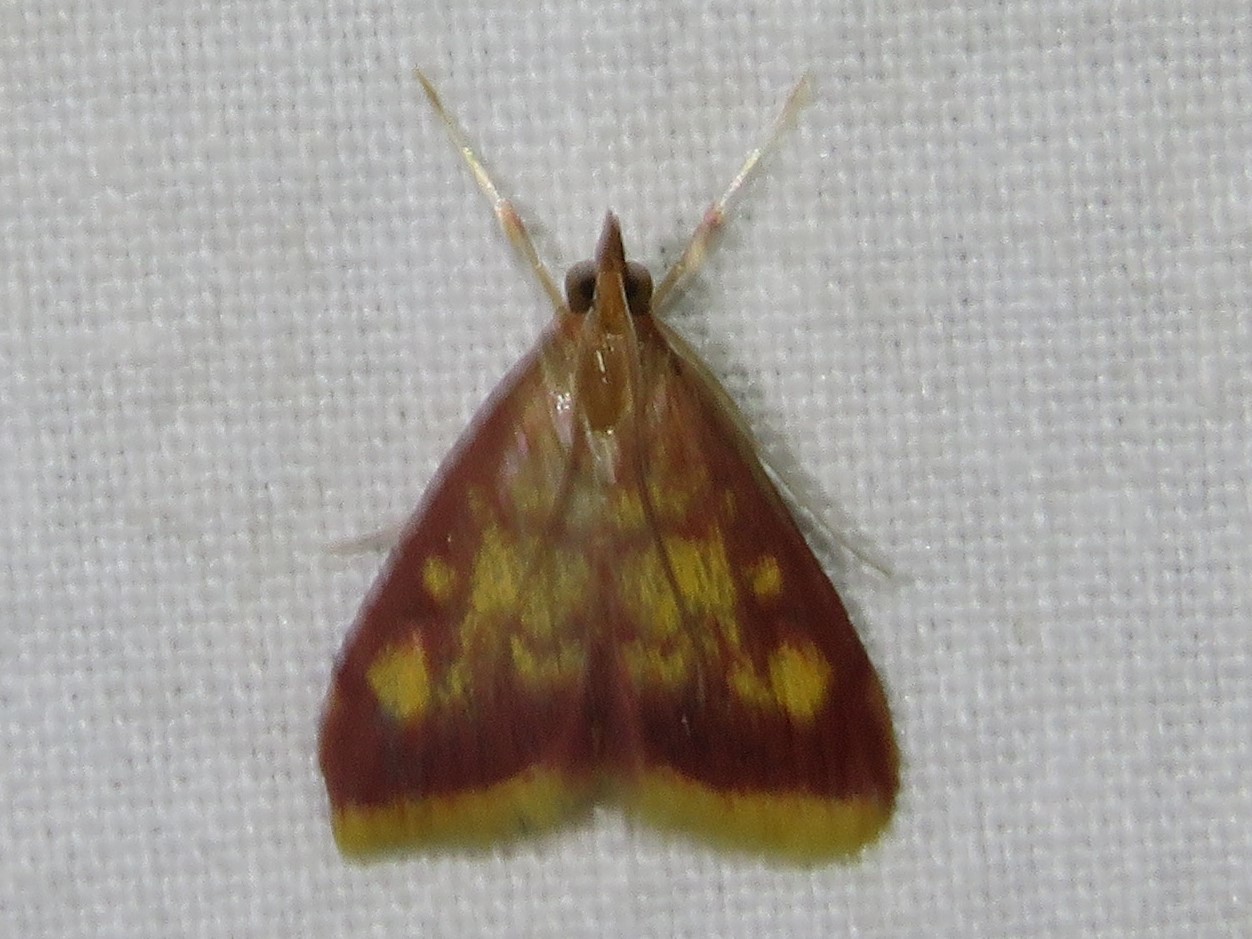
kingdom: Animalia
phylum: Arthropoda
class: Insecta
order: Lepidoptera
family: Crambidae
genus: Pyrausta
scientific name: Pyrausta acrionalis
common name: Mint-loving pyrausta moth
